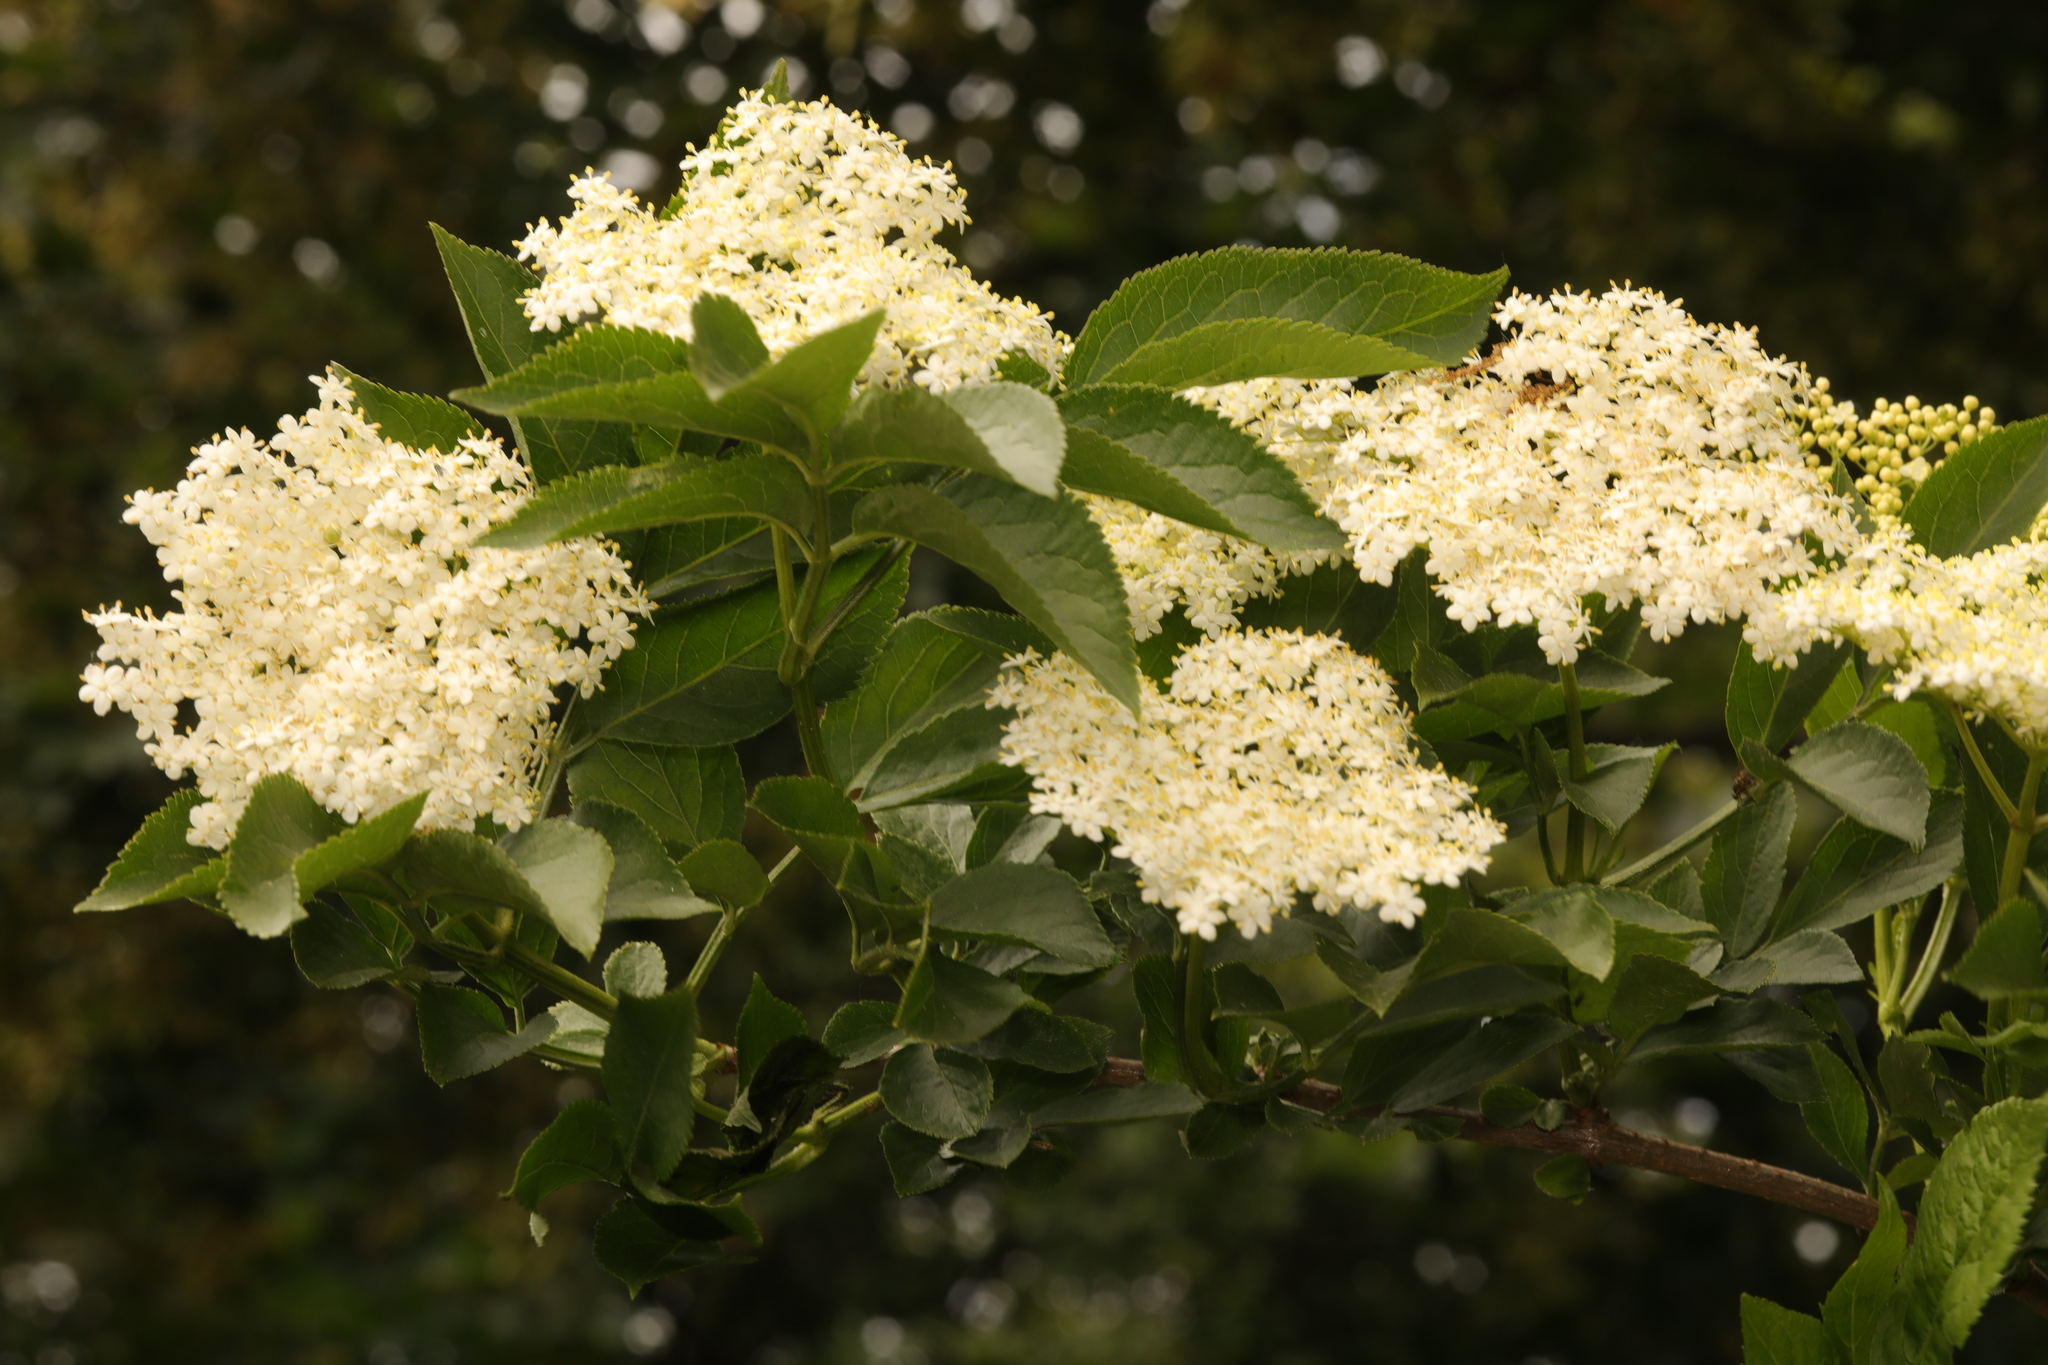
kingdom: Plantae
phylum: Tracheophyta
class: Magnoliopsida
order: Dipsacales
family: Viburnaceae
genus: Sambucus
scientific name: Sambucus nigra
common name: Elder
